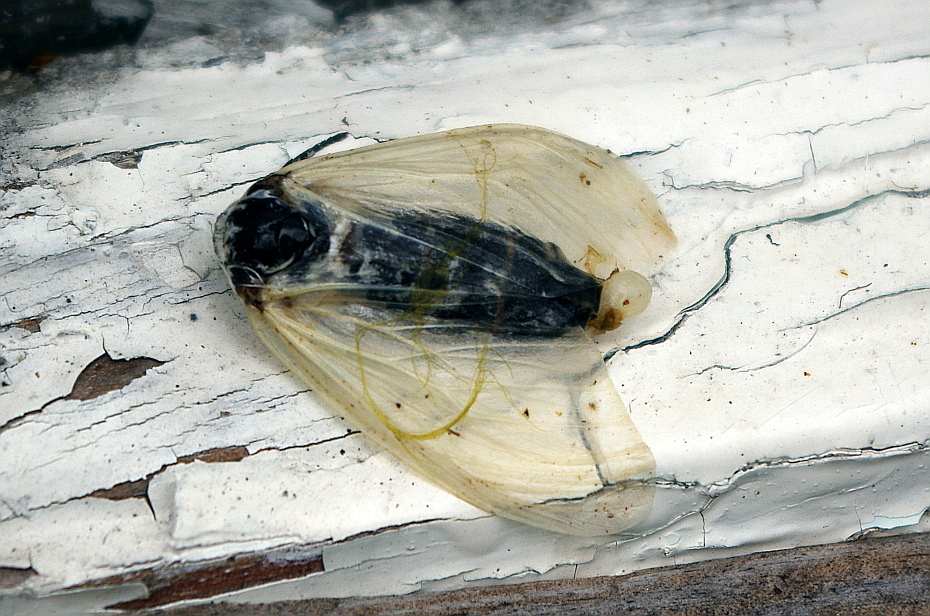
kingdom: Animalia
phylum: Arthropoda
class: Insecta
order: Lepidoptera
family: Erebidae
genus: Leucoma
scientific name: Leucoma salicis
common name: White satin moth
